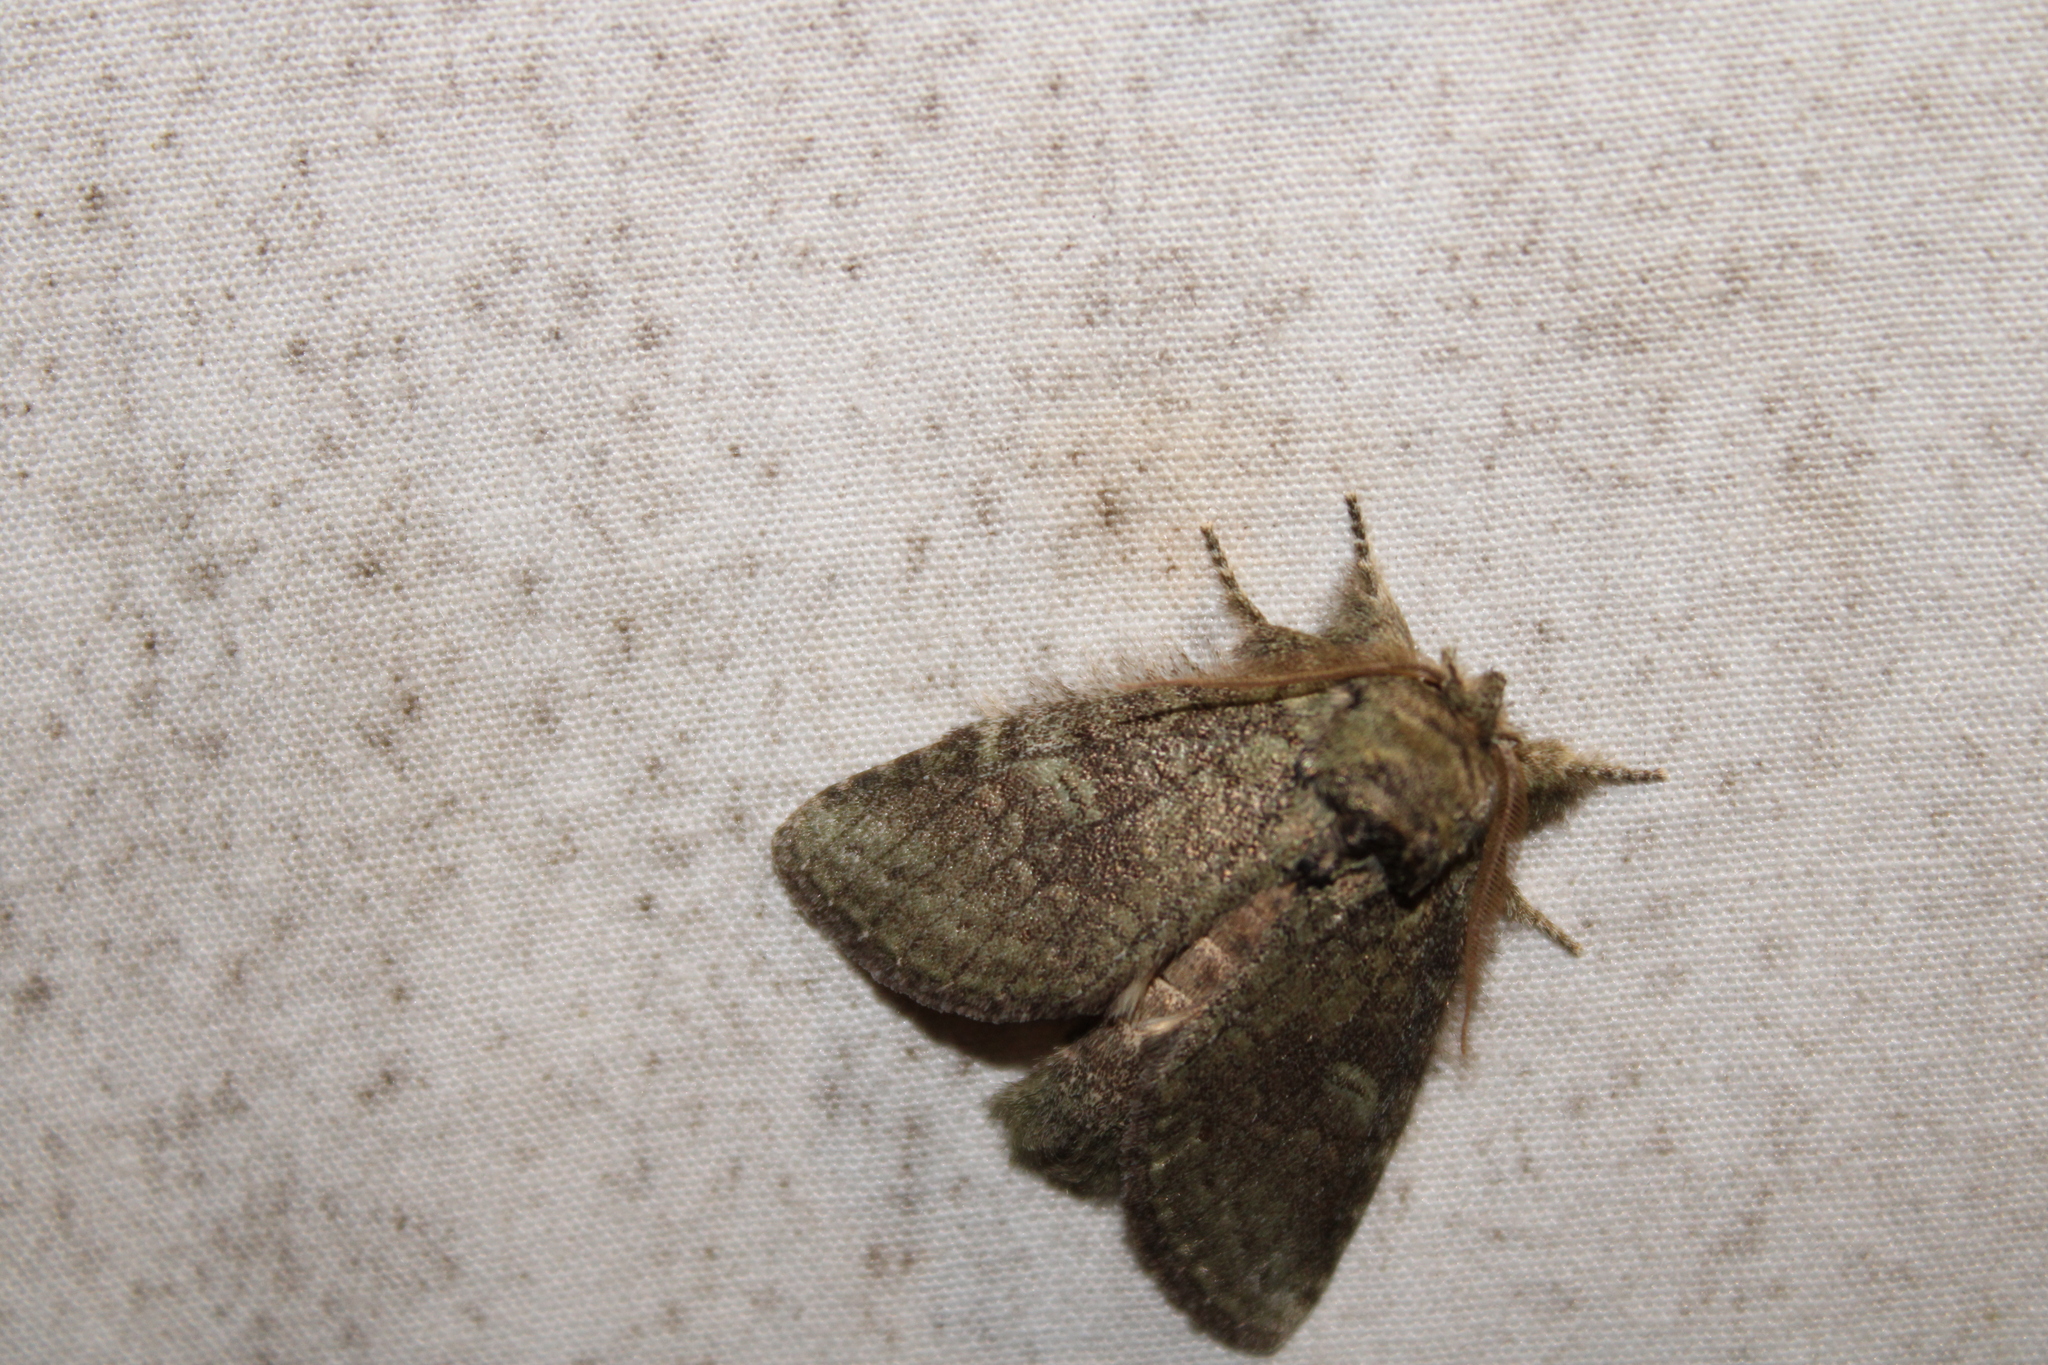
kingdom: Animalia
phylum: Arthropoda
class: Insecta
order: Lepidoptera
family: Notodontidae
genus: Disphragis
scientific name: Disphragis Cecrita guttivitta
